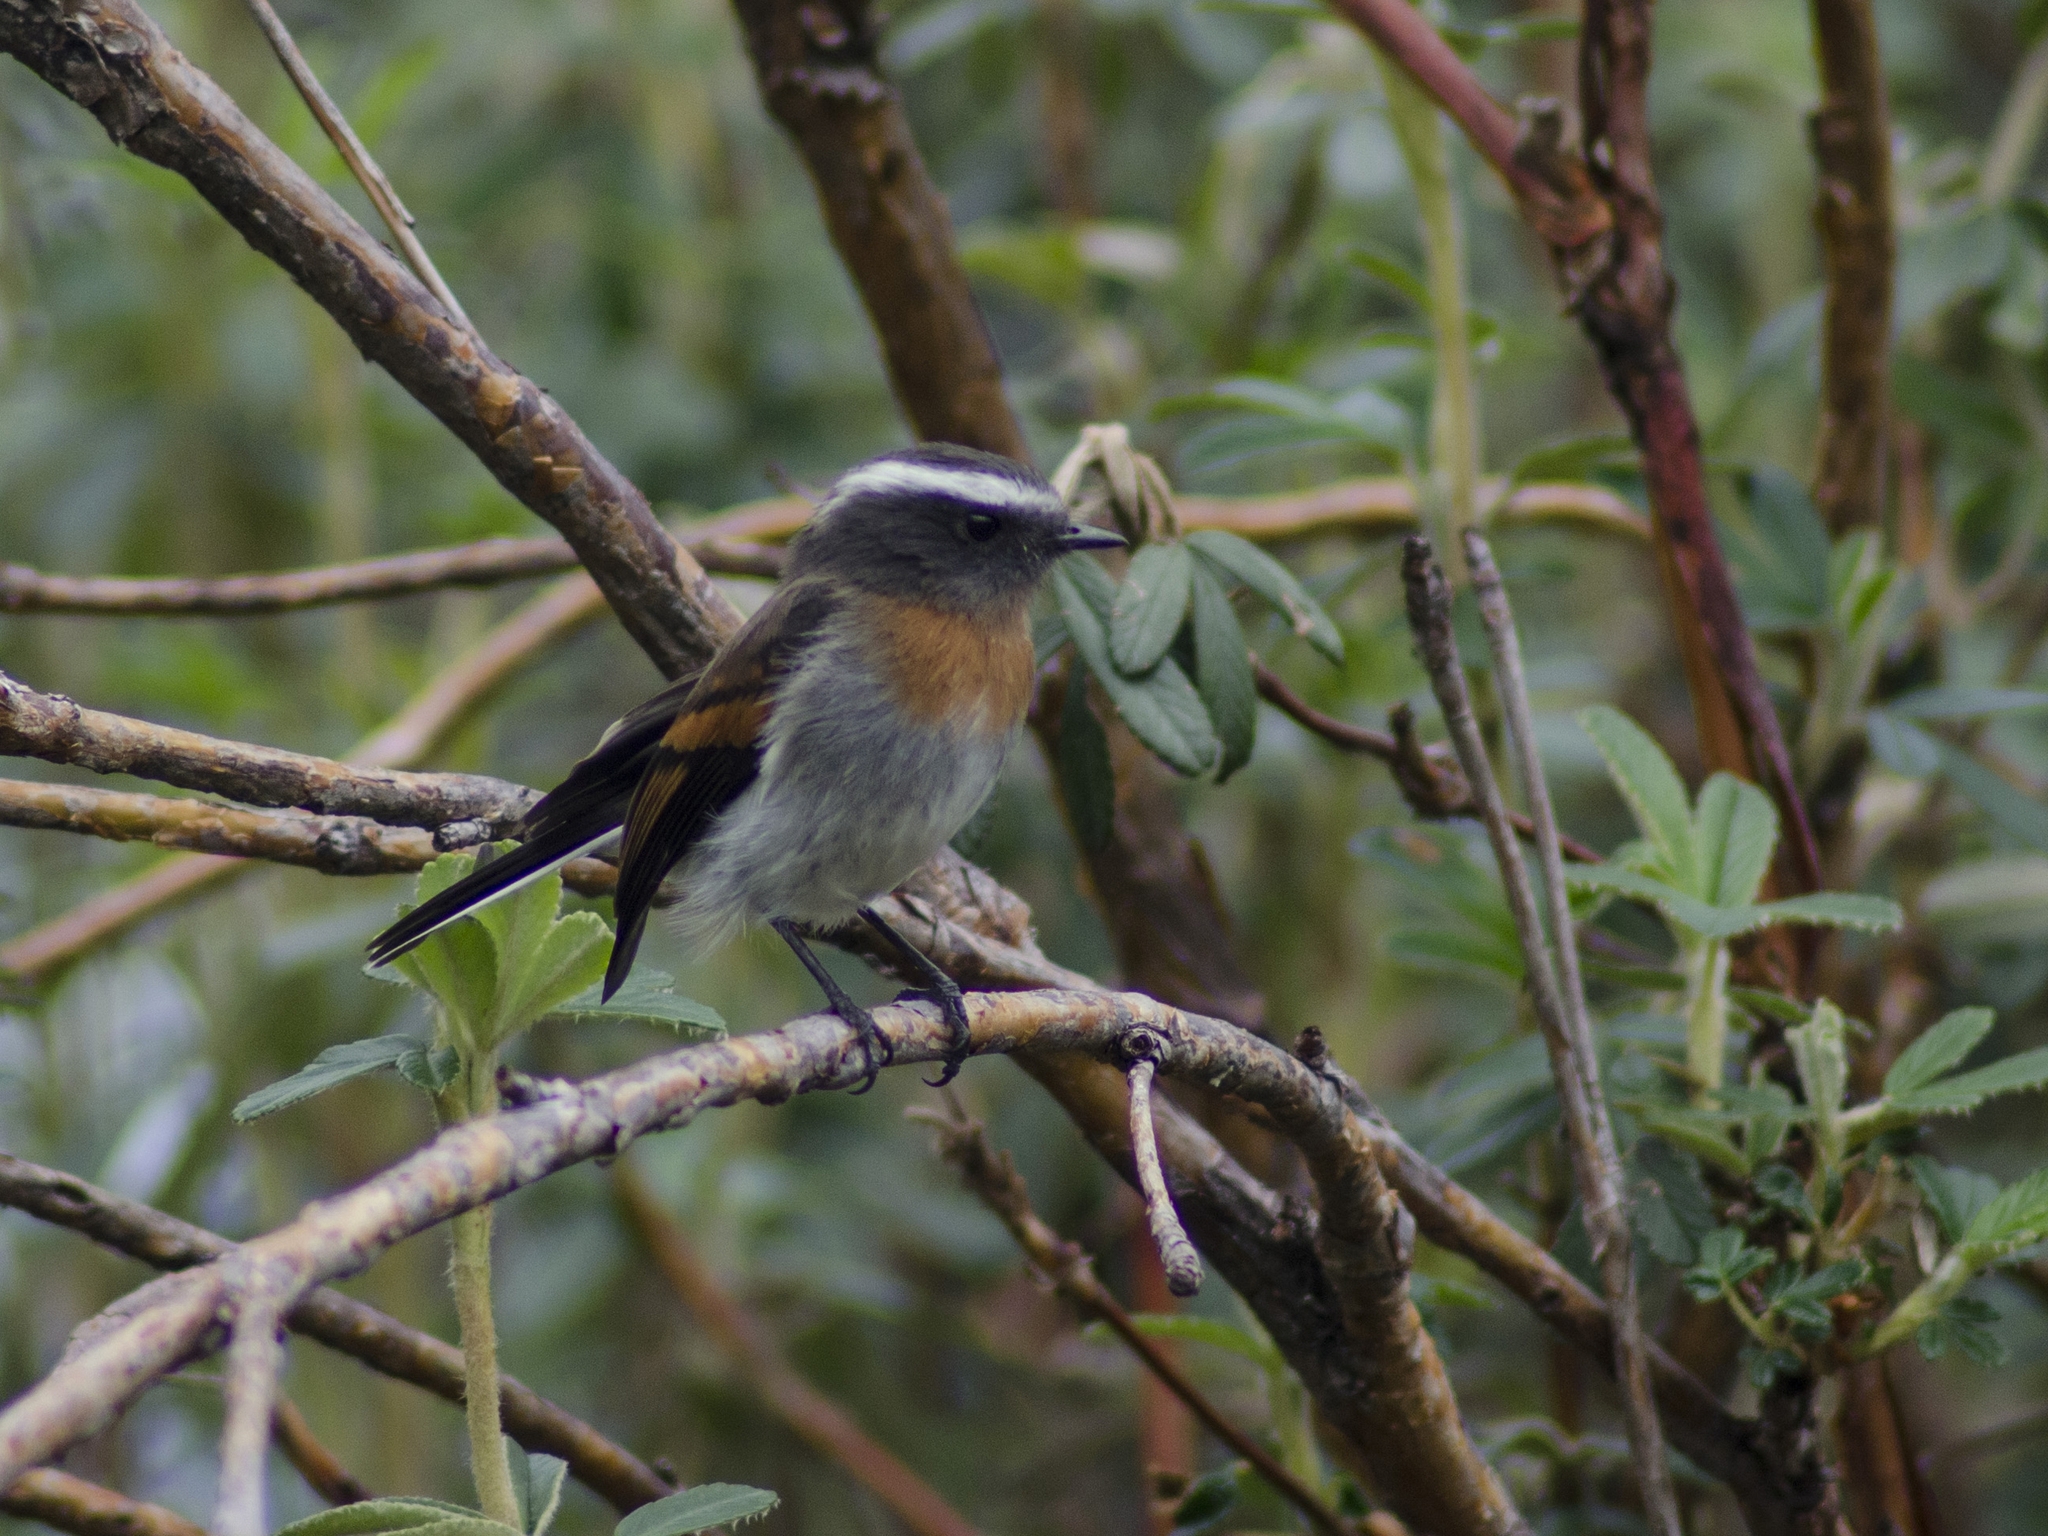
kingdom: Animalia
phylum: Chordata
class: Aves
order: Passeriformes
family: Tyrannidae
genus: Ochthoeca
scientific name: Ochthoeca rufipectoralis
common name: Rufous-breasted chat-tyrant
